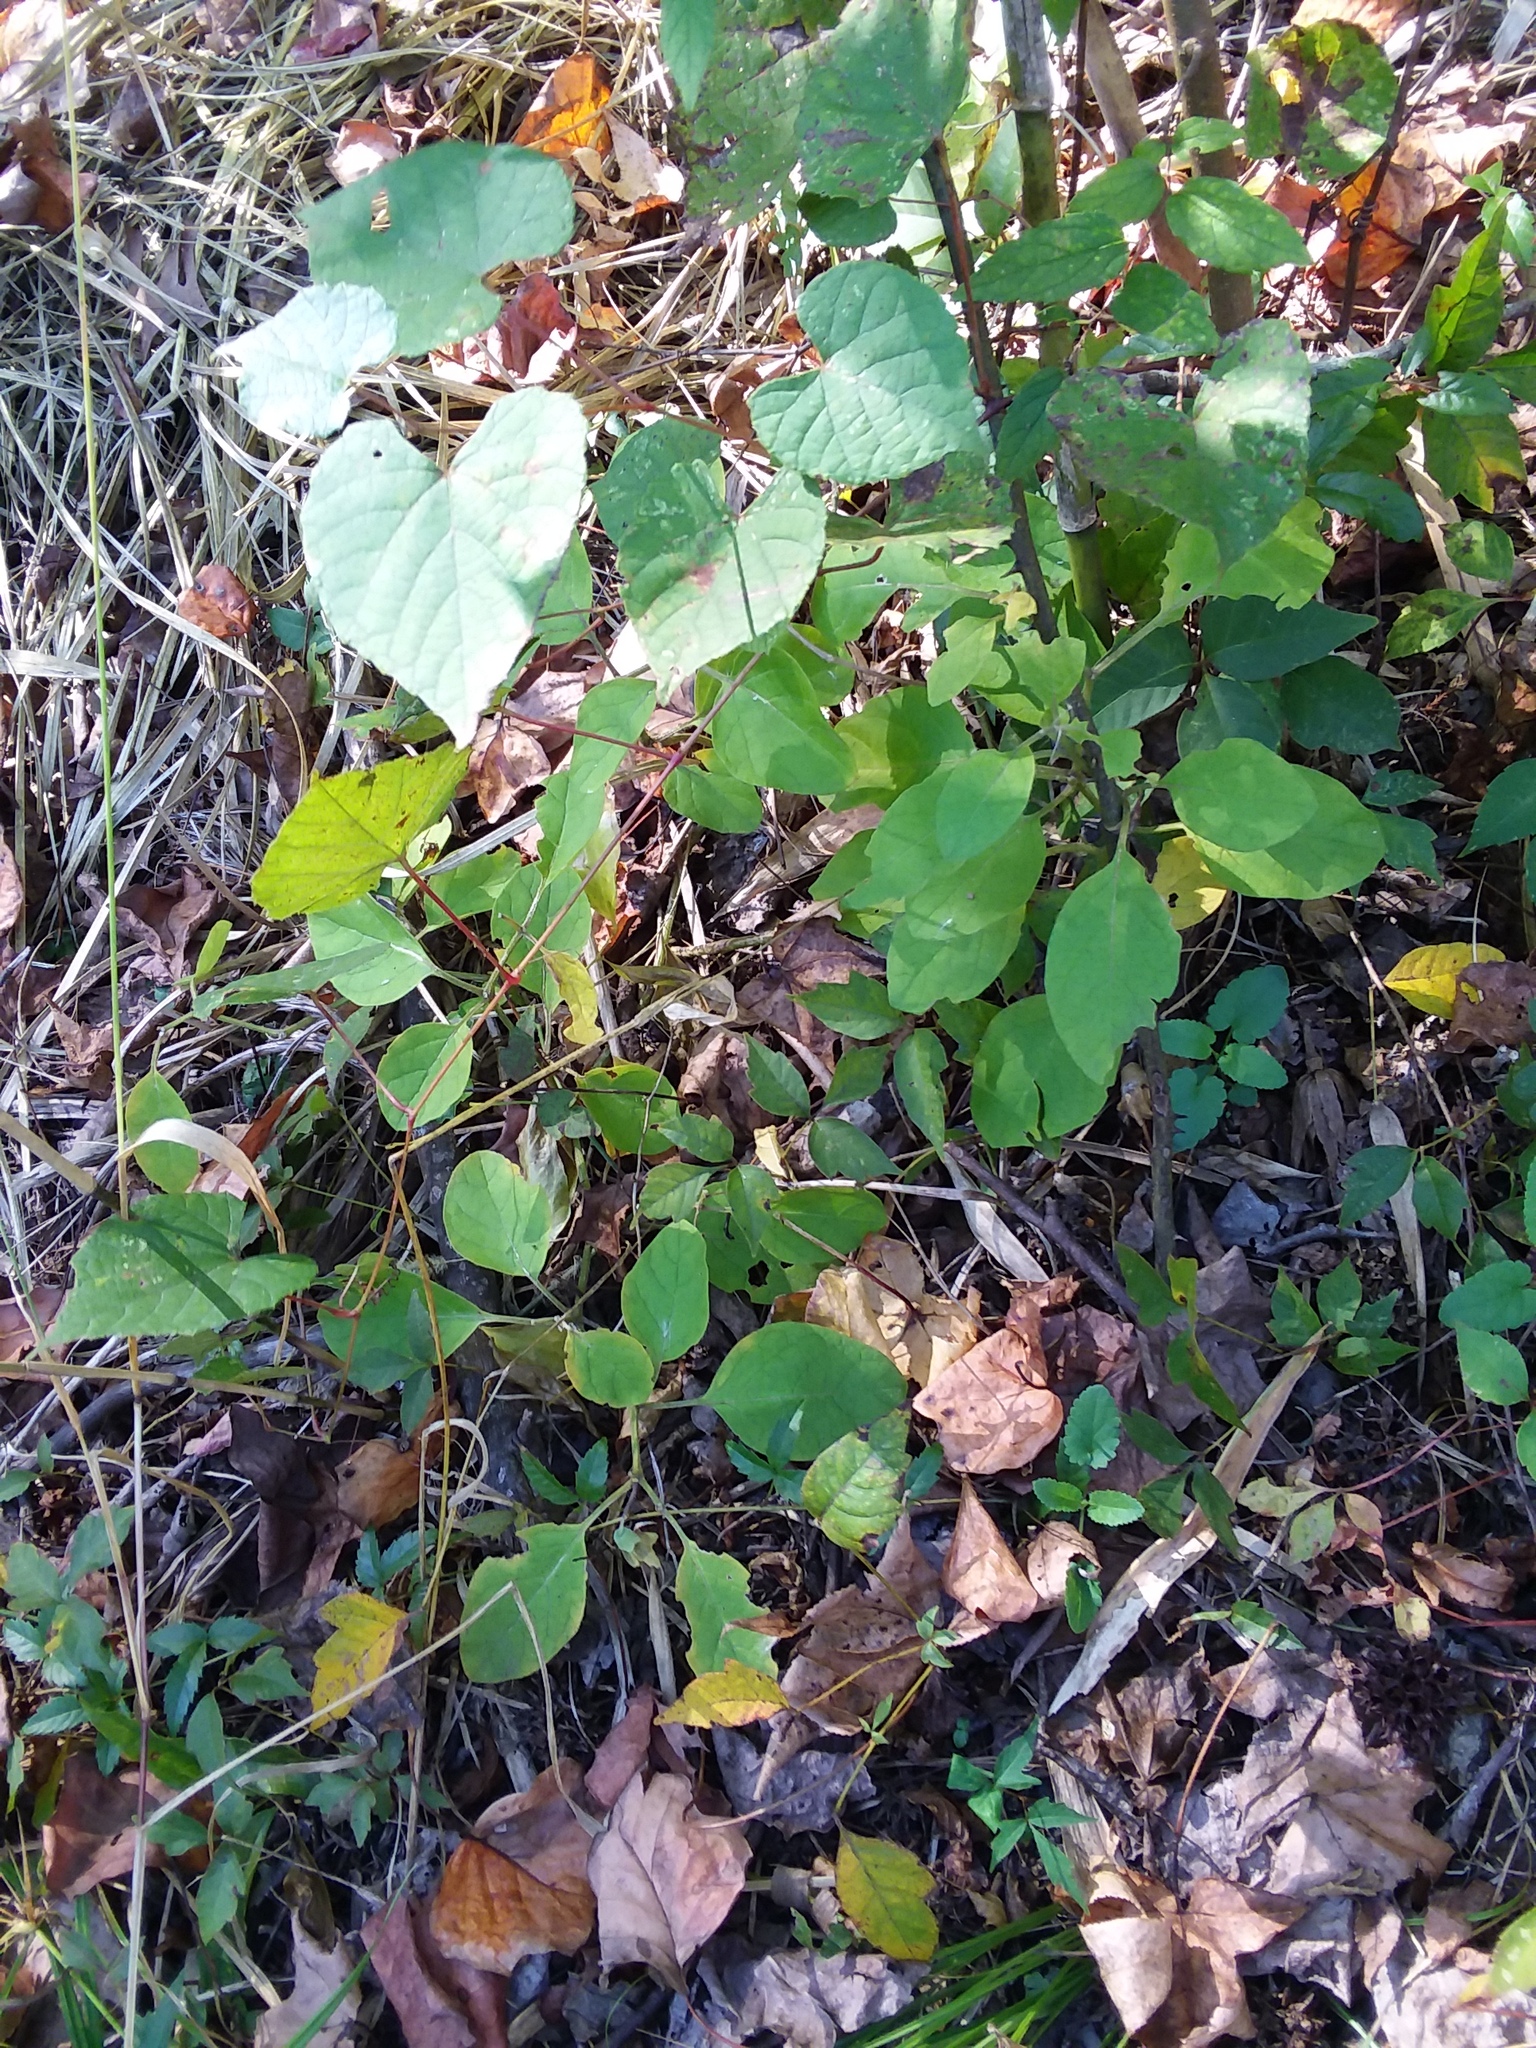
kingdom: Plantae
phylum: Tracheophyta
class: Magnoliopsida
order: Solanales
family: Solanaceae
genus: Physalis
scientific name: Physalis walteri
